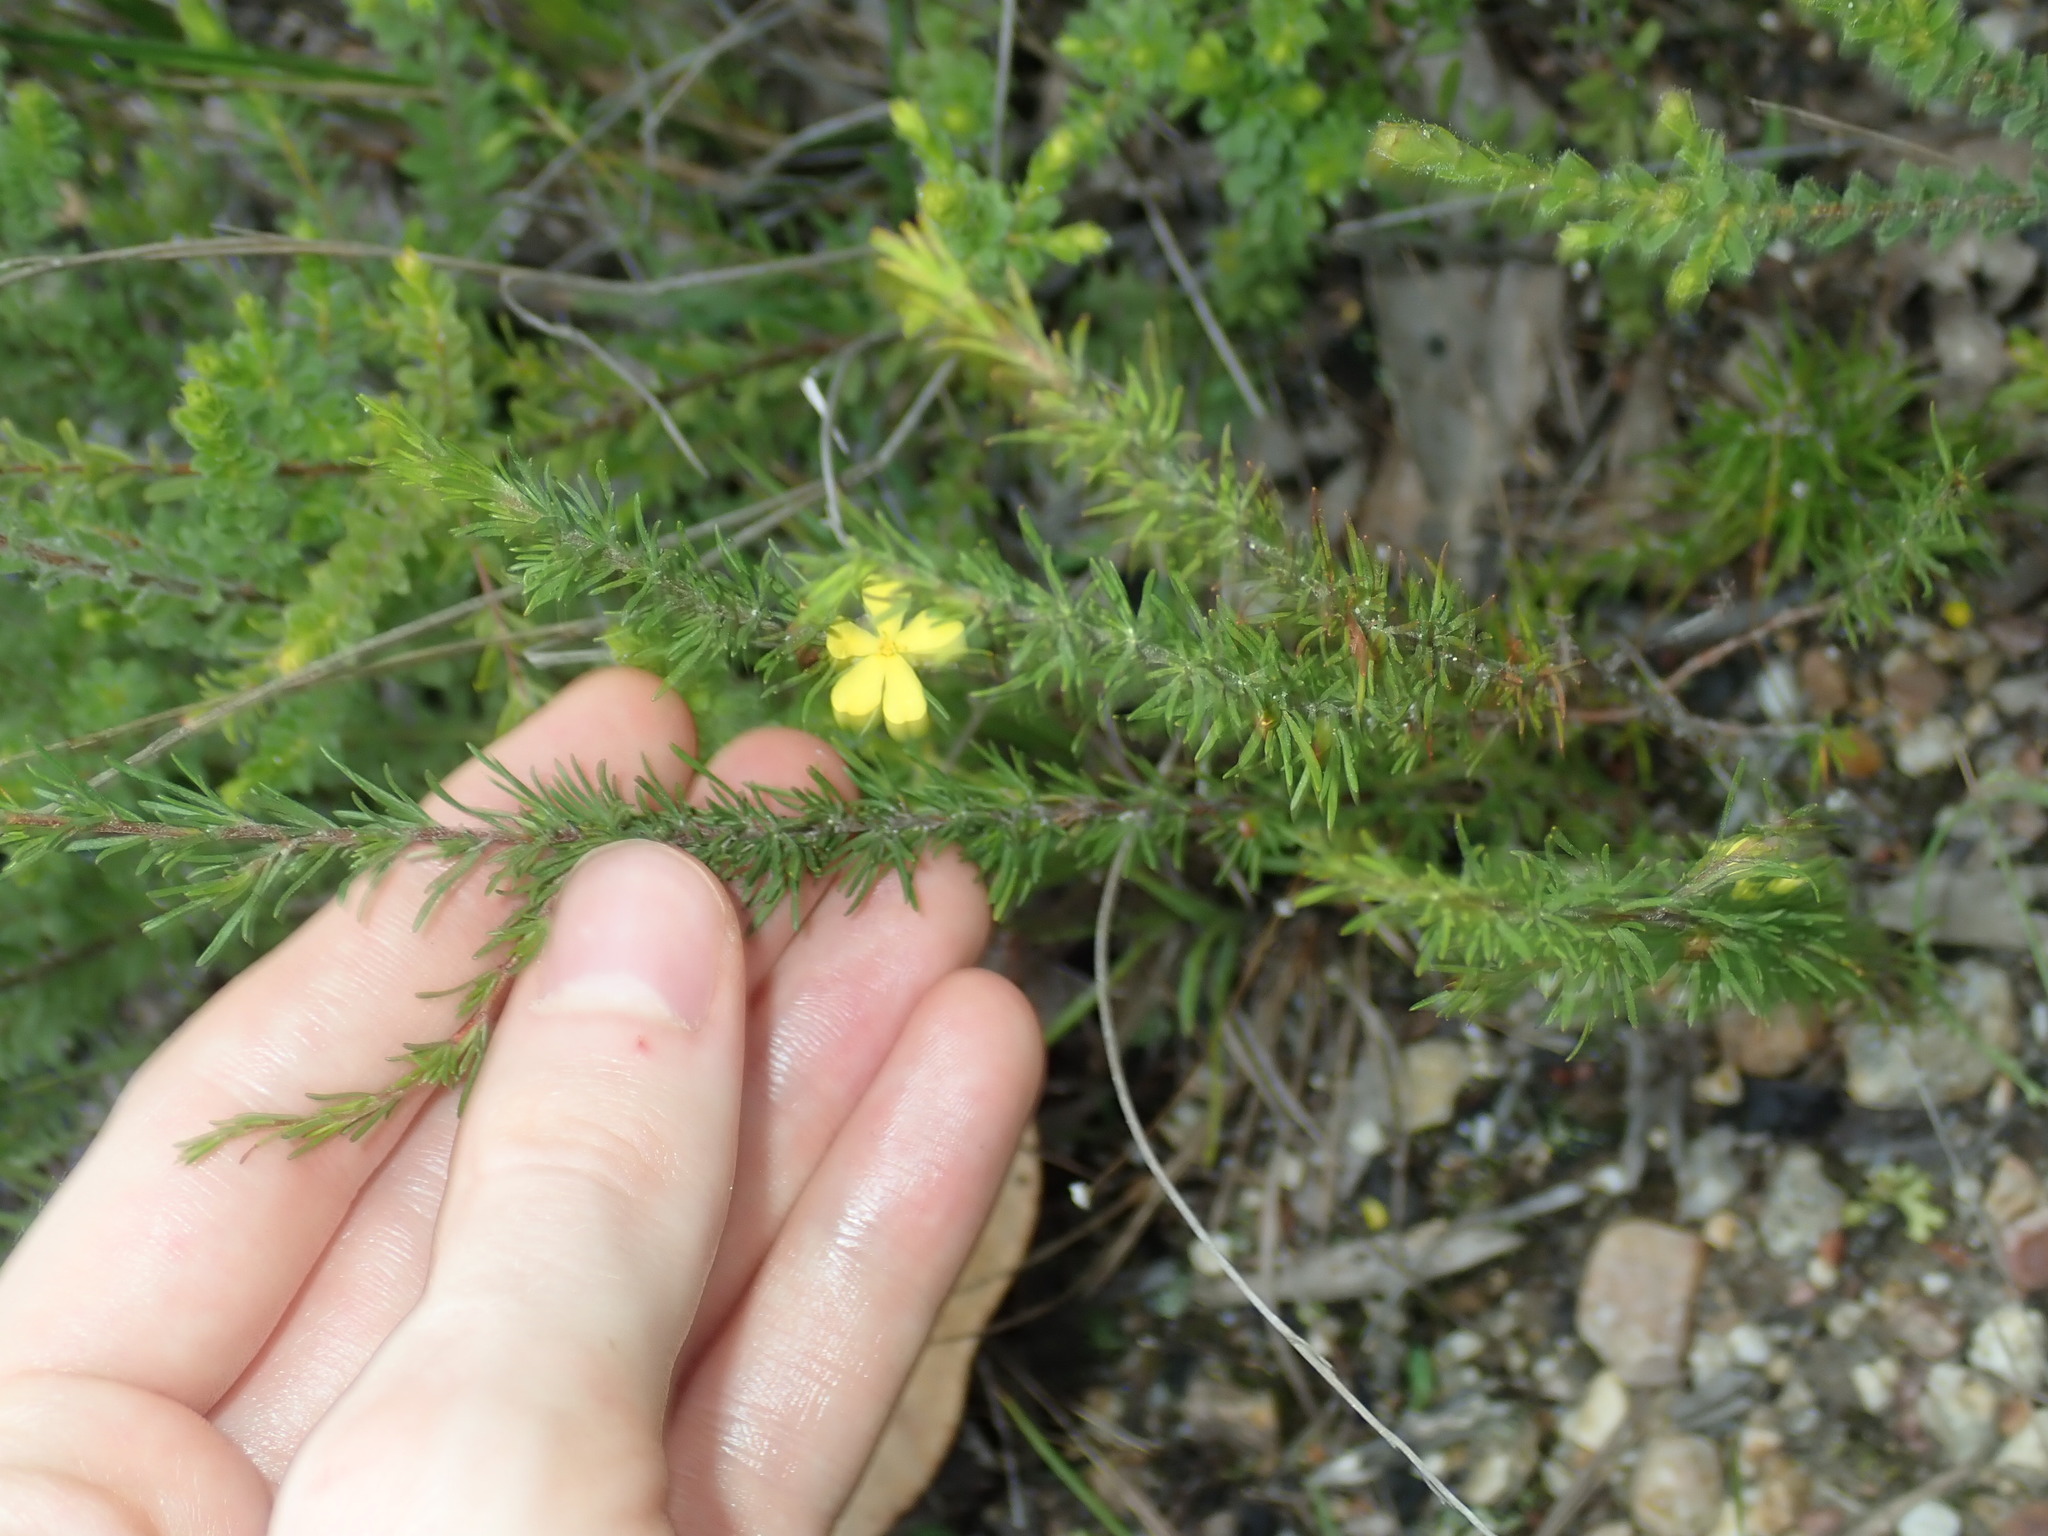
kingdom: Plantae
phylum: Tracheophyta
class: Magnoliopsida
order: Dilleniales
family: Dilleniaceae
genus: Hibbertia
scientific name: Hibbertia fasciculata
